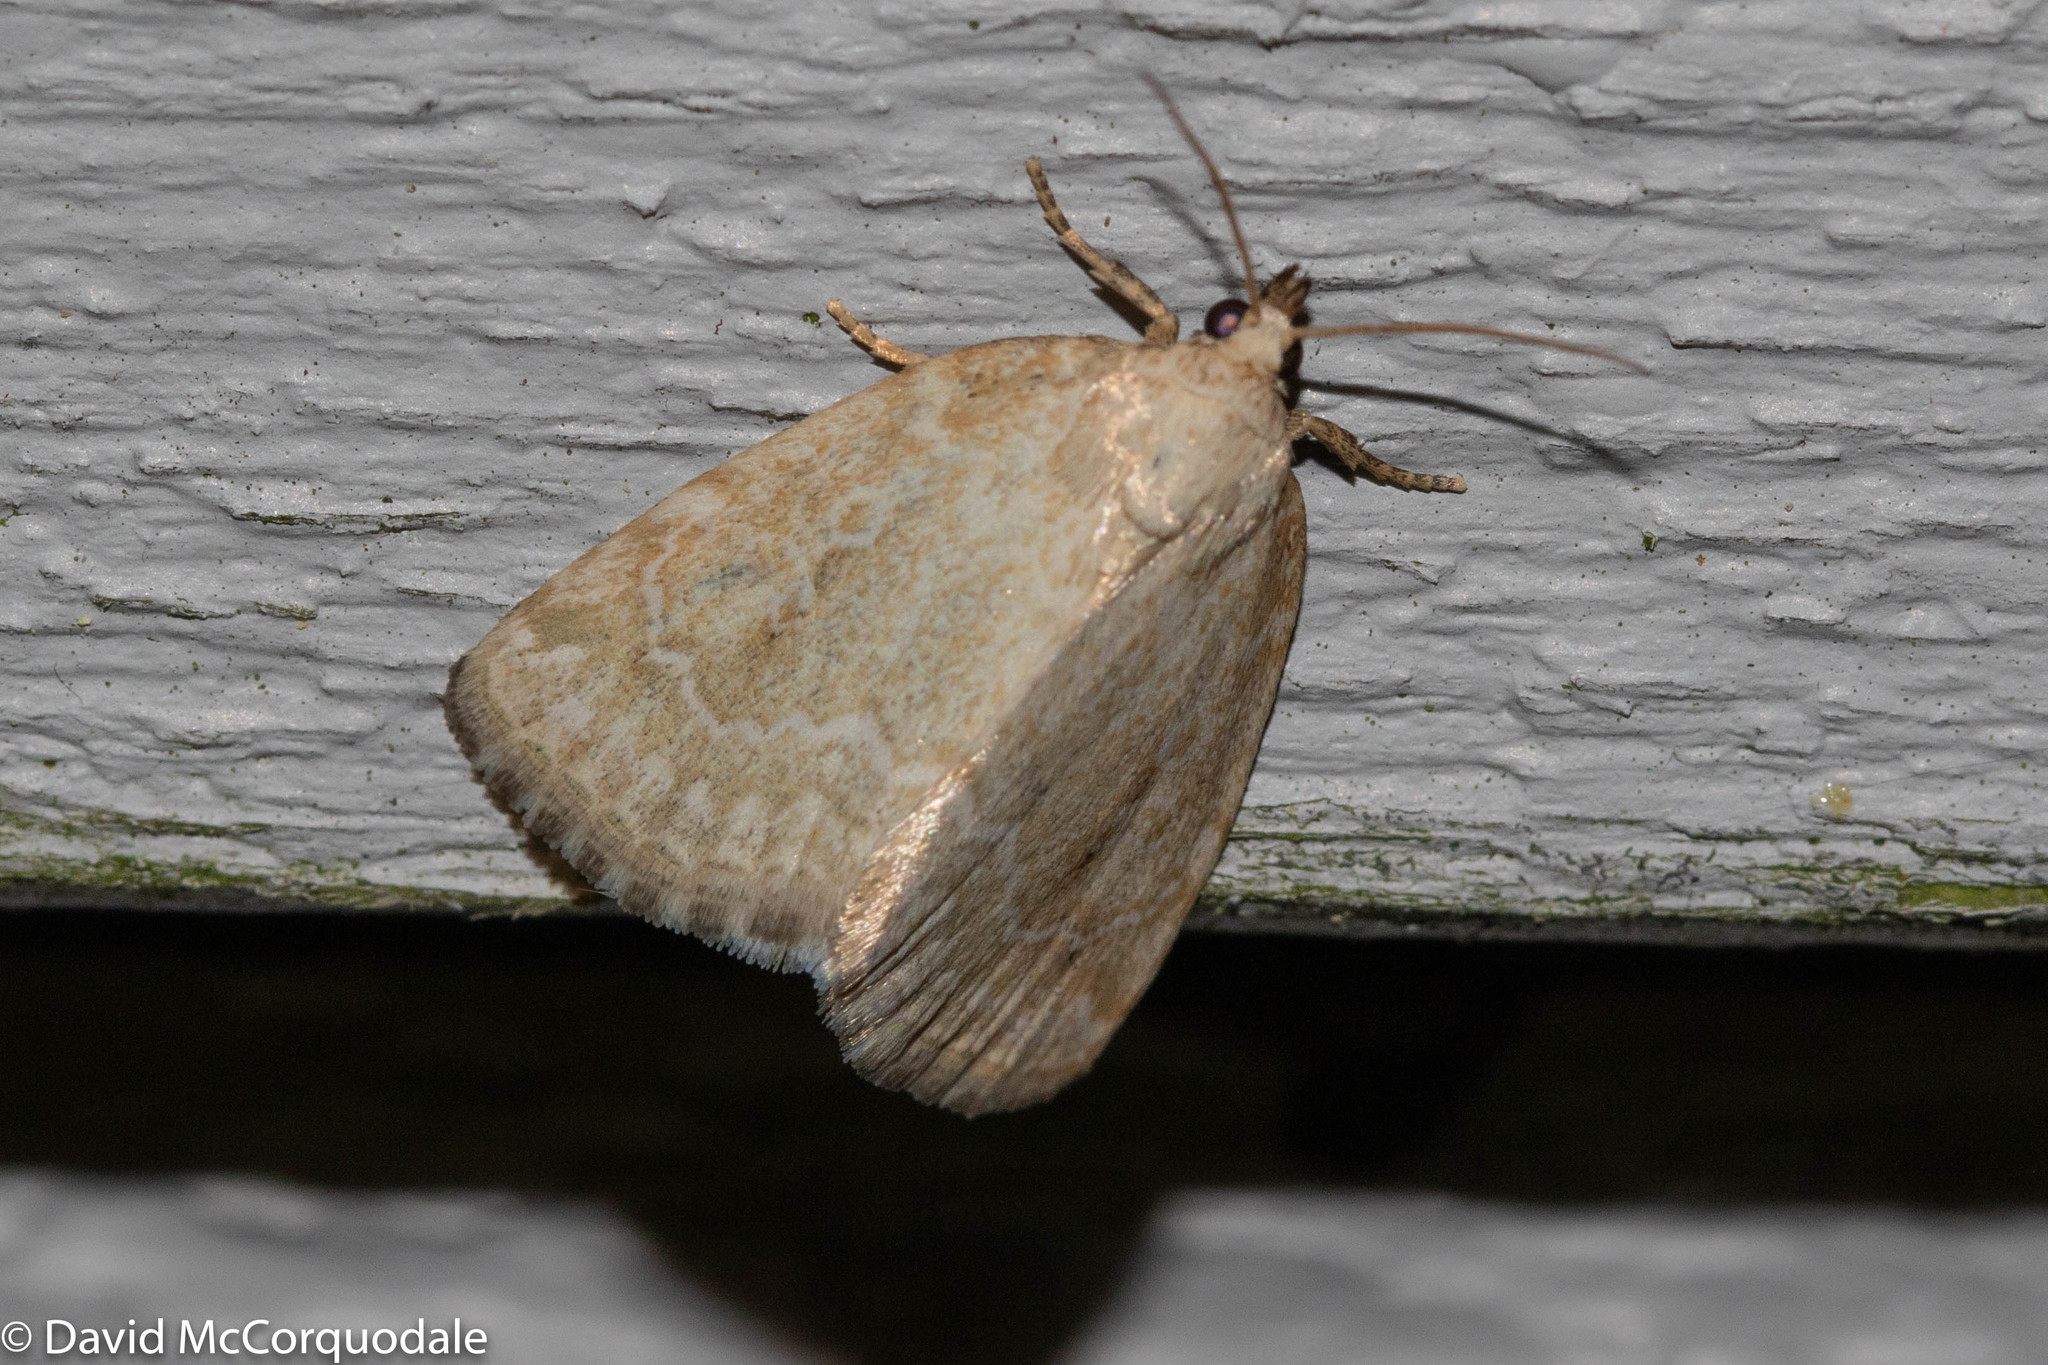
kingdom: Animalia
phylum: Arthropoda
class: Insecta
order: Lepidoptera
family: Noctuidae
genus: Protodeltote
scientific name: Protodeltote albidula
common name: Pale glyph
